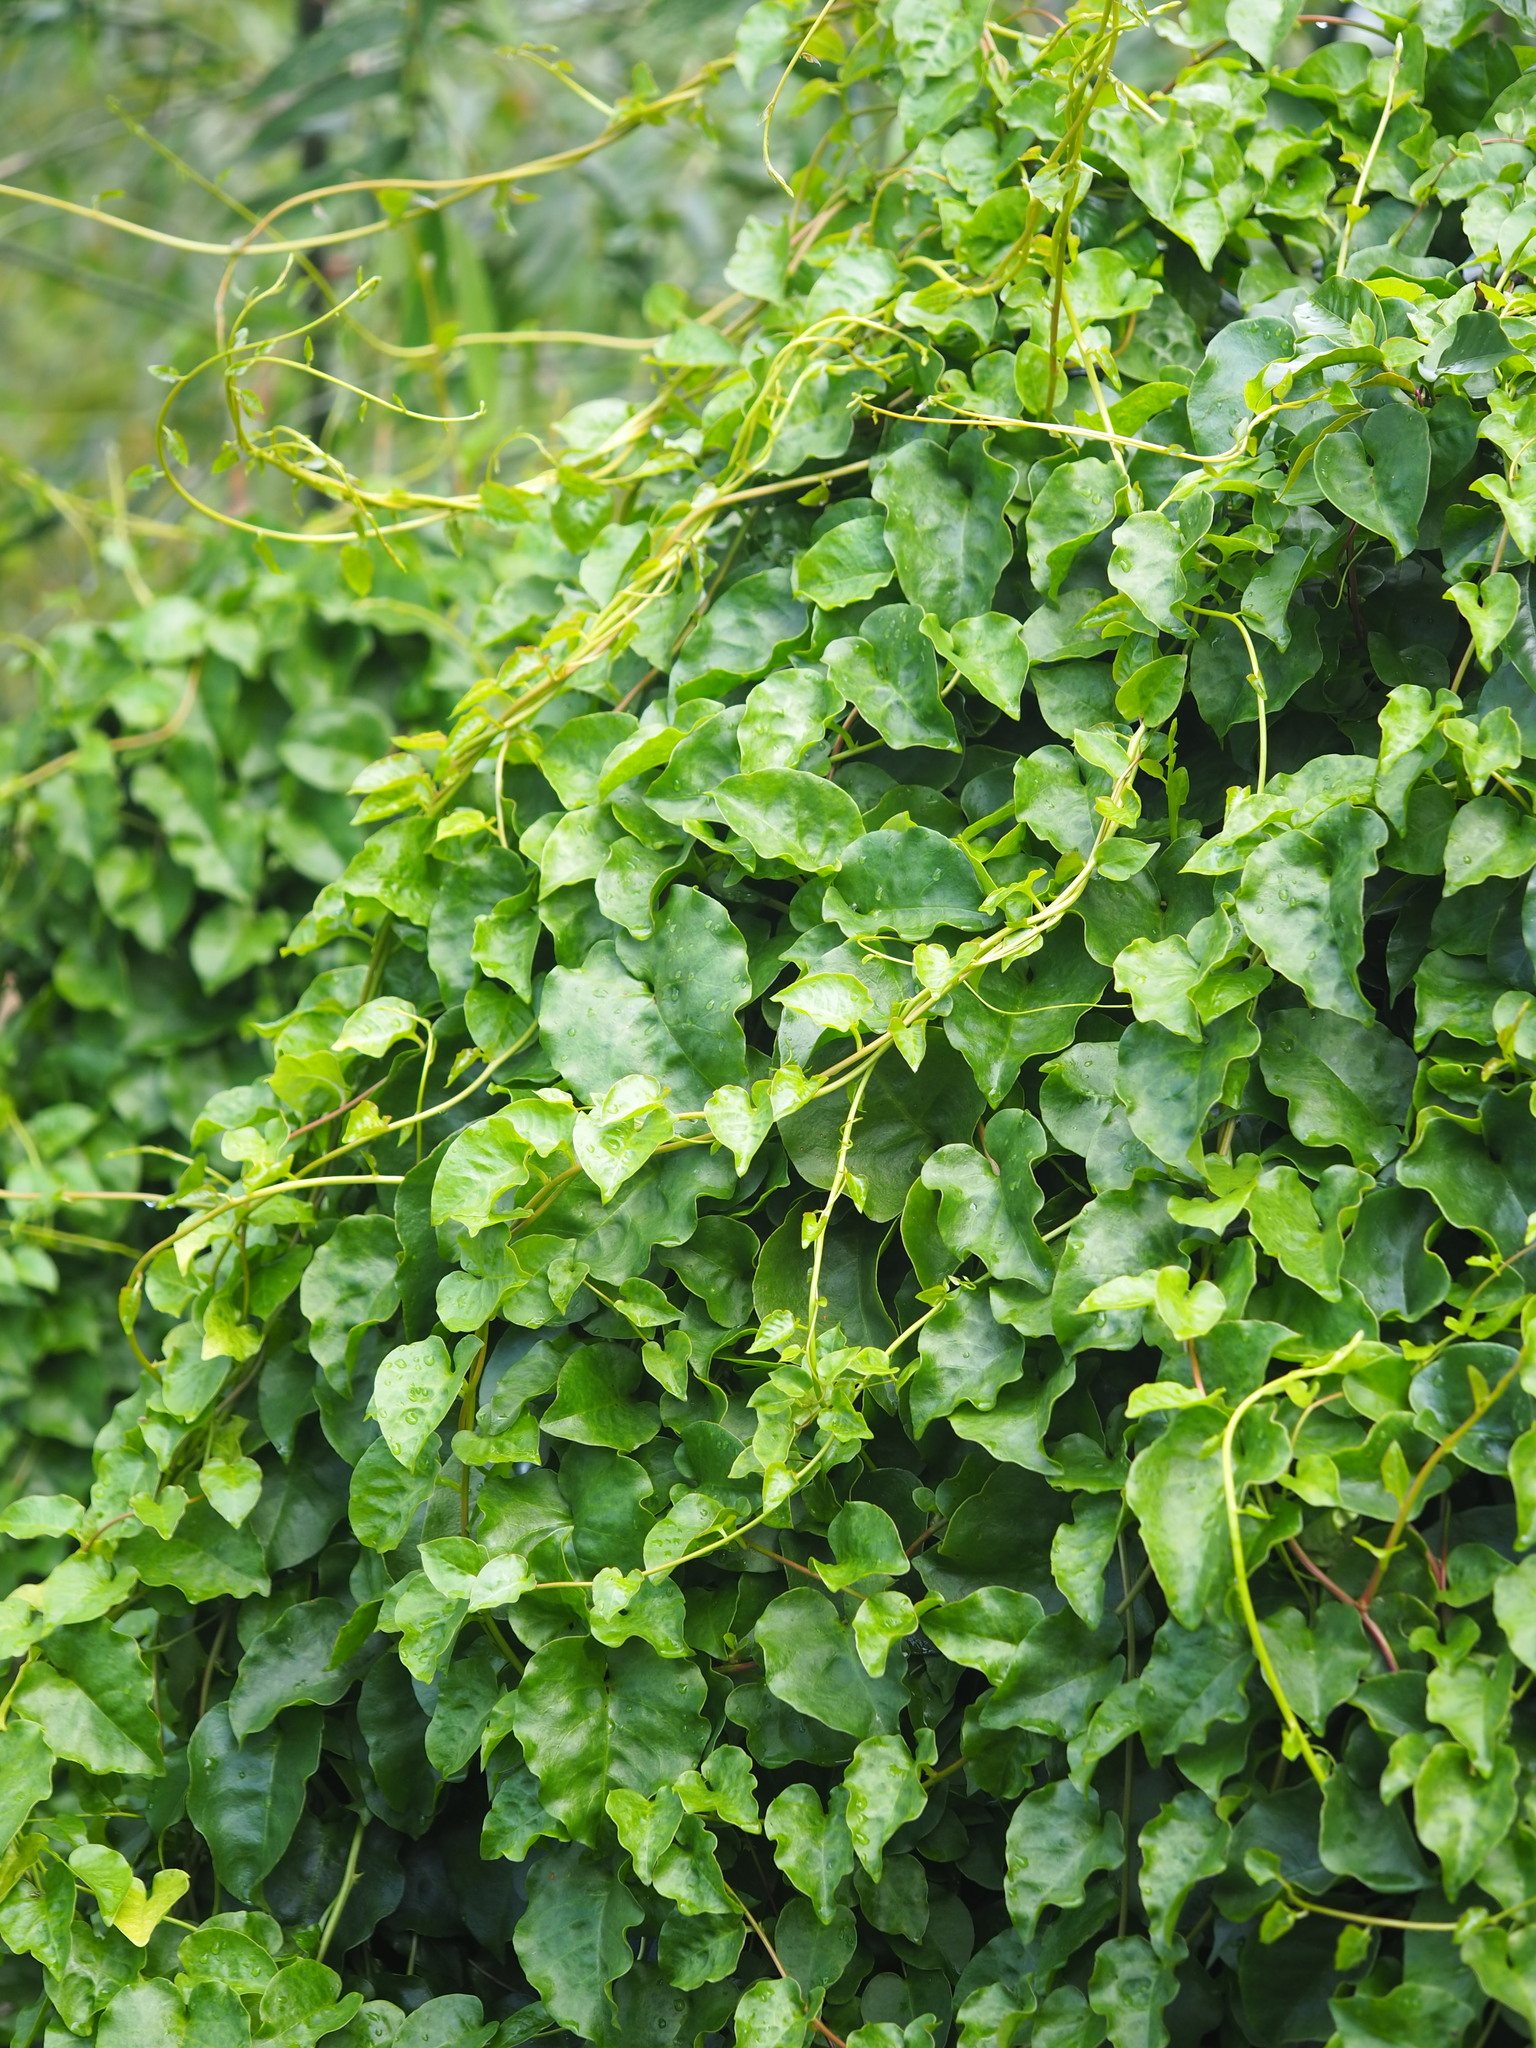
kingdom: Plantae
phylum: Tracheophyta
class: Magnoliopsida
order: Caryophyllales
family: Basellaceae
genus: Anredera
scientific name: Anredera cordifolia
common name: Heartleaf madeiravine
